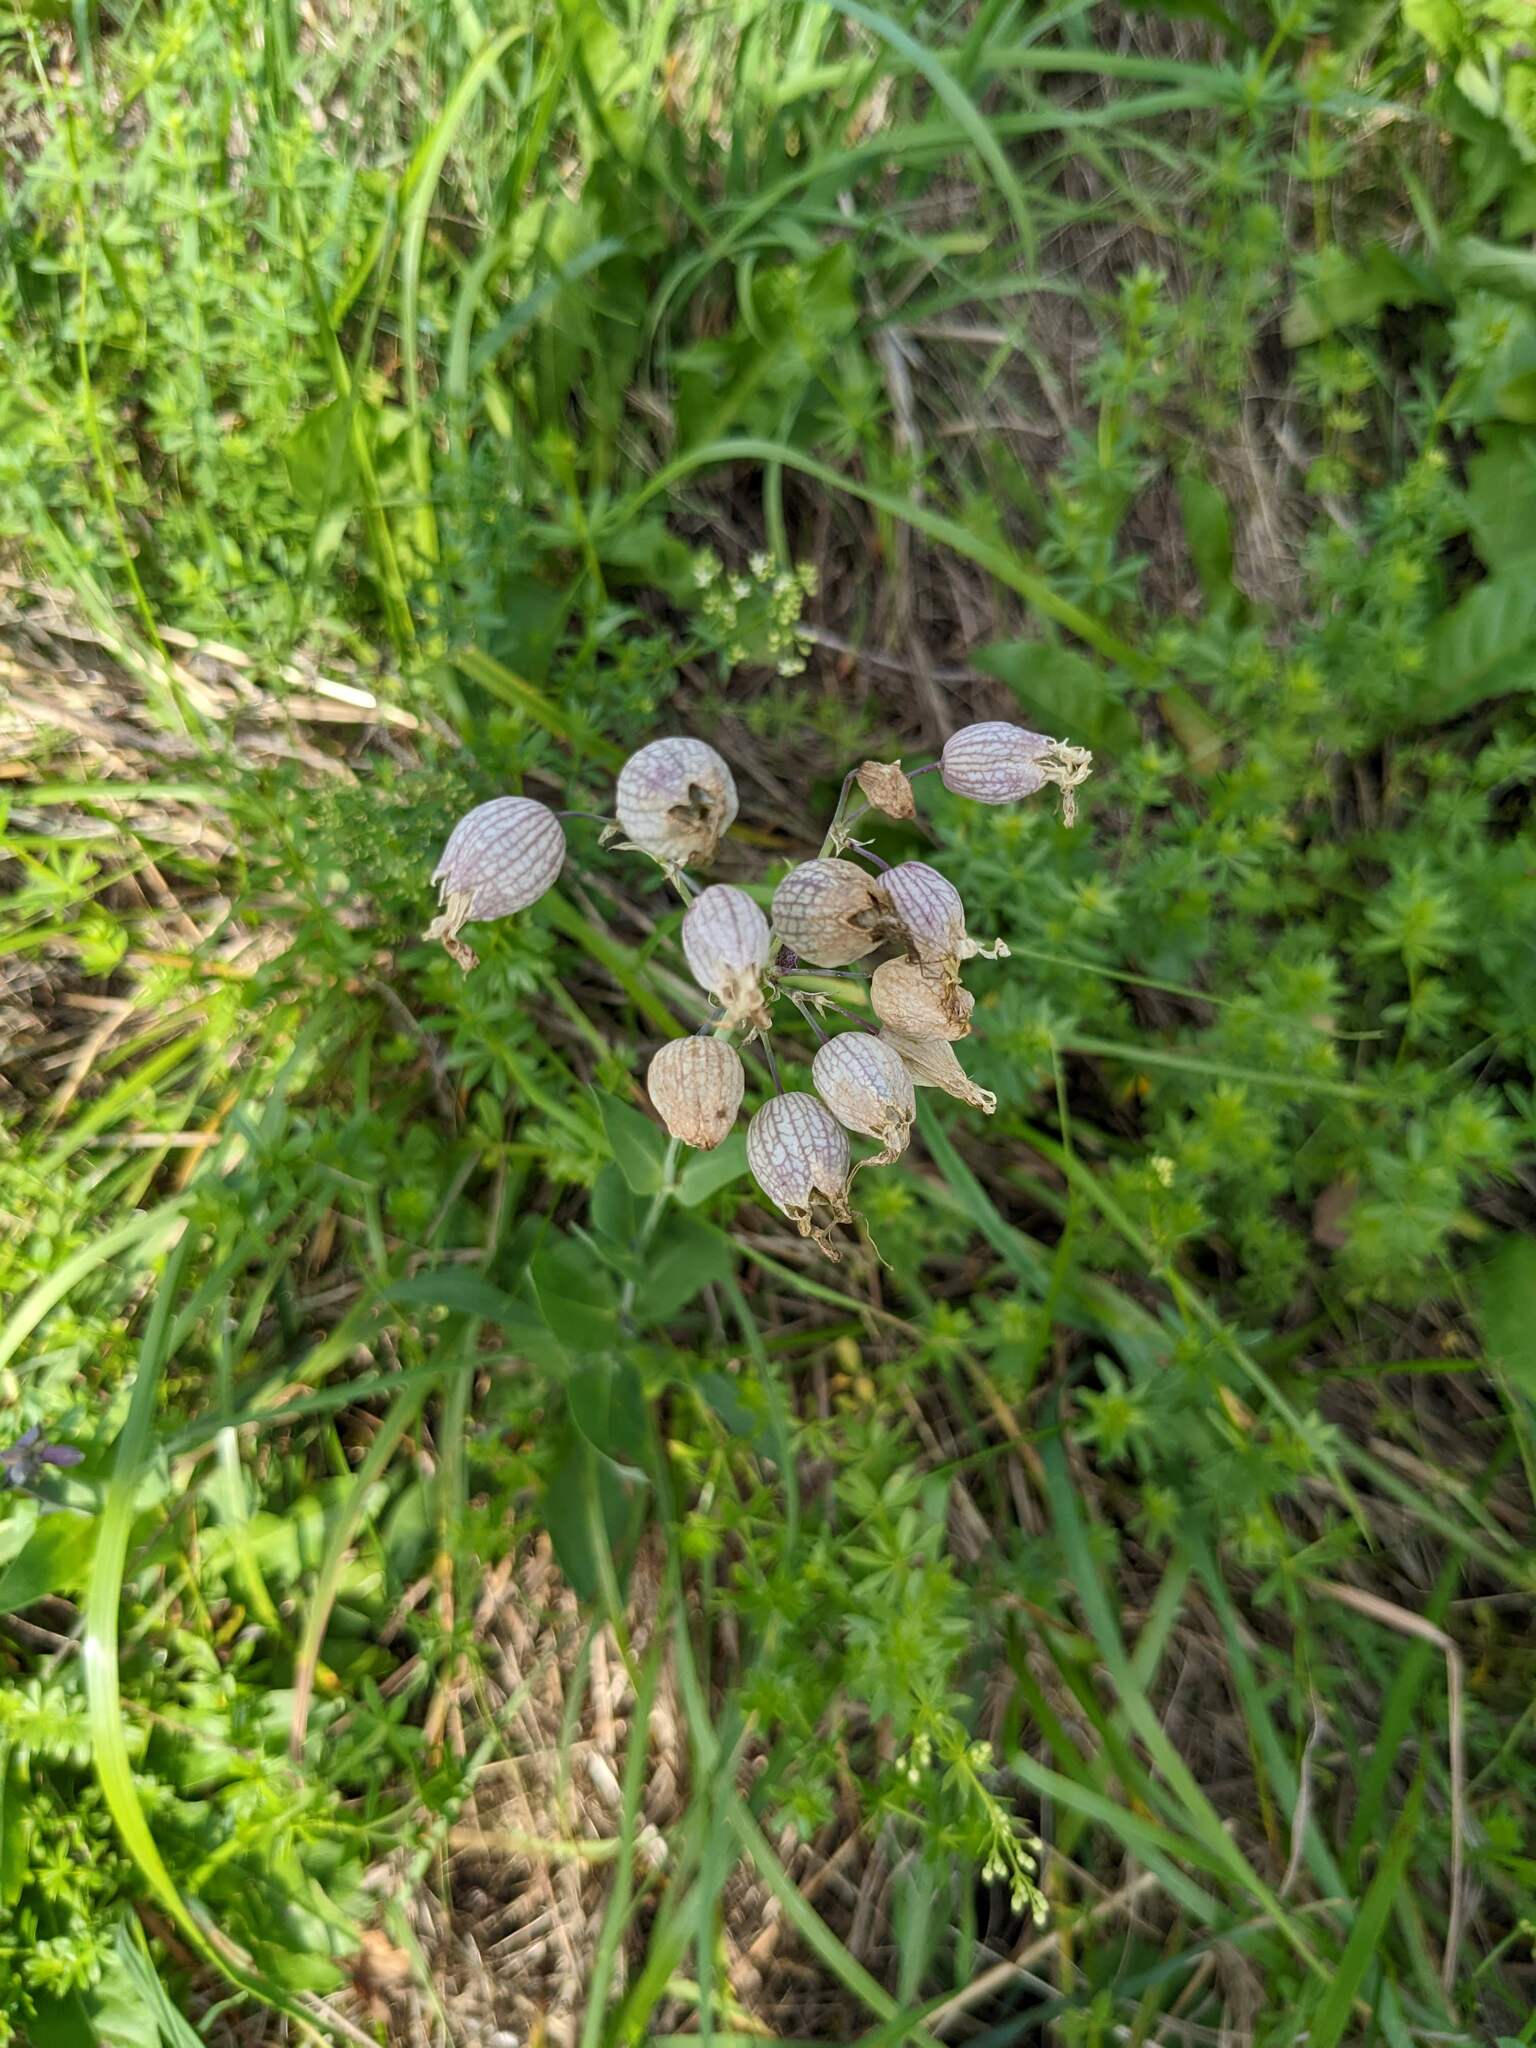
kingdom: Plantae
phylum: Tracheophyta
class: Magnoliopsida
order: Caryophyllales
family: Caryophyllaceae
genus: Silene
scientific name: Silene vulgaris
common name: Bladder campion
